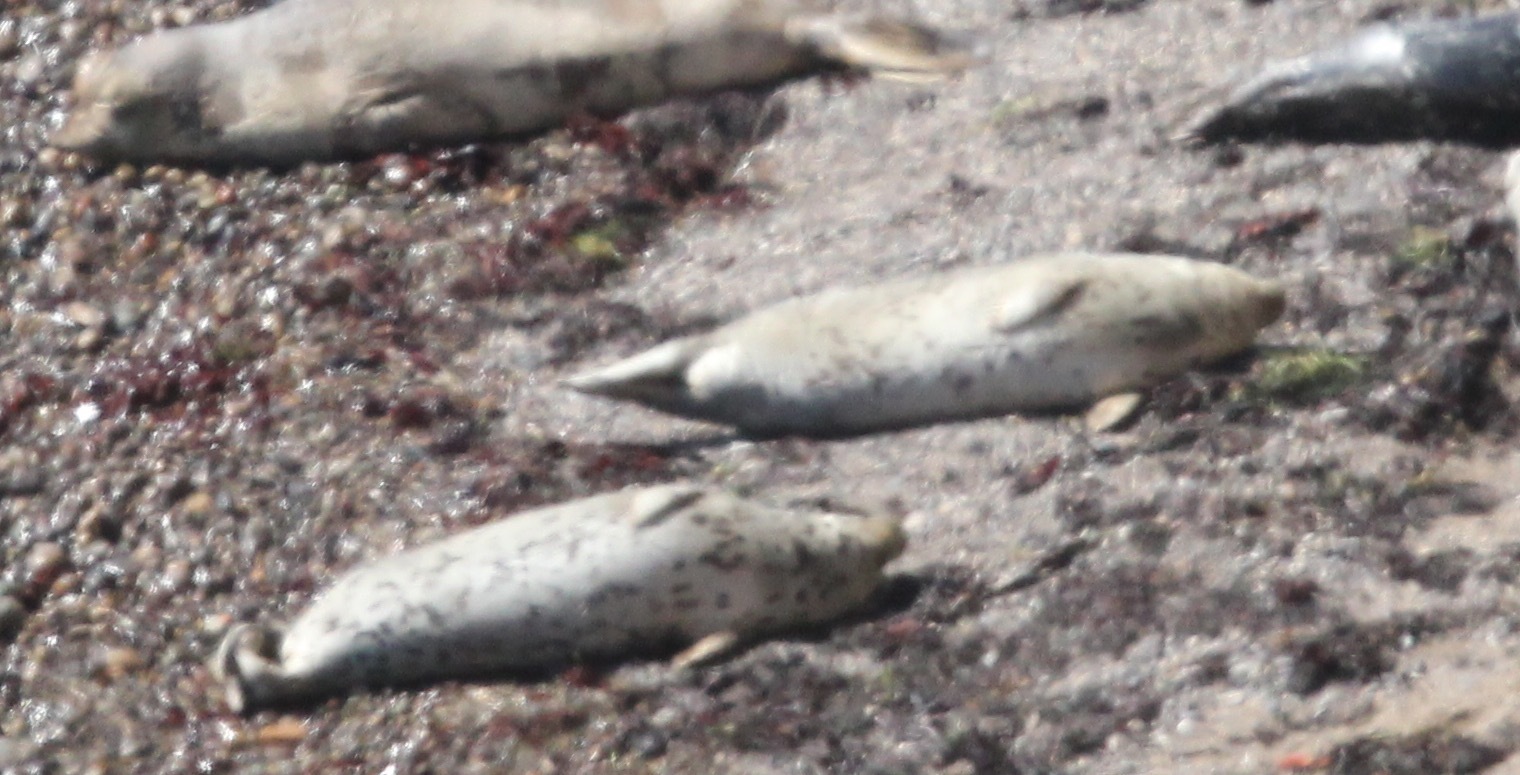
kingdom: Animalia
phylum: Chordata
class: Mammalia
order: Carnivora
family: Phocidae
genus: Phoca
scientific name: Phoca vitulina
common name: Harbor seal
